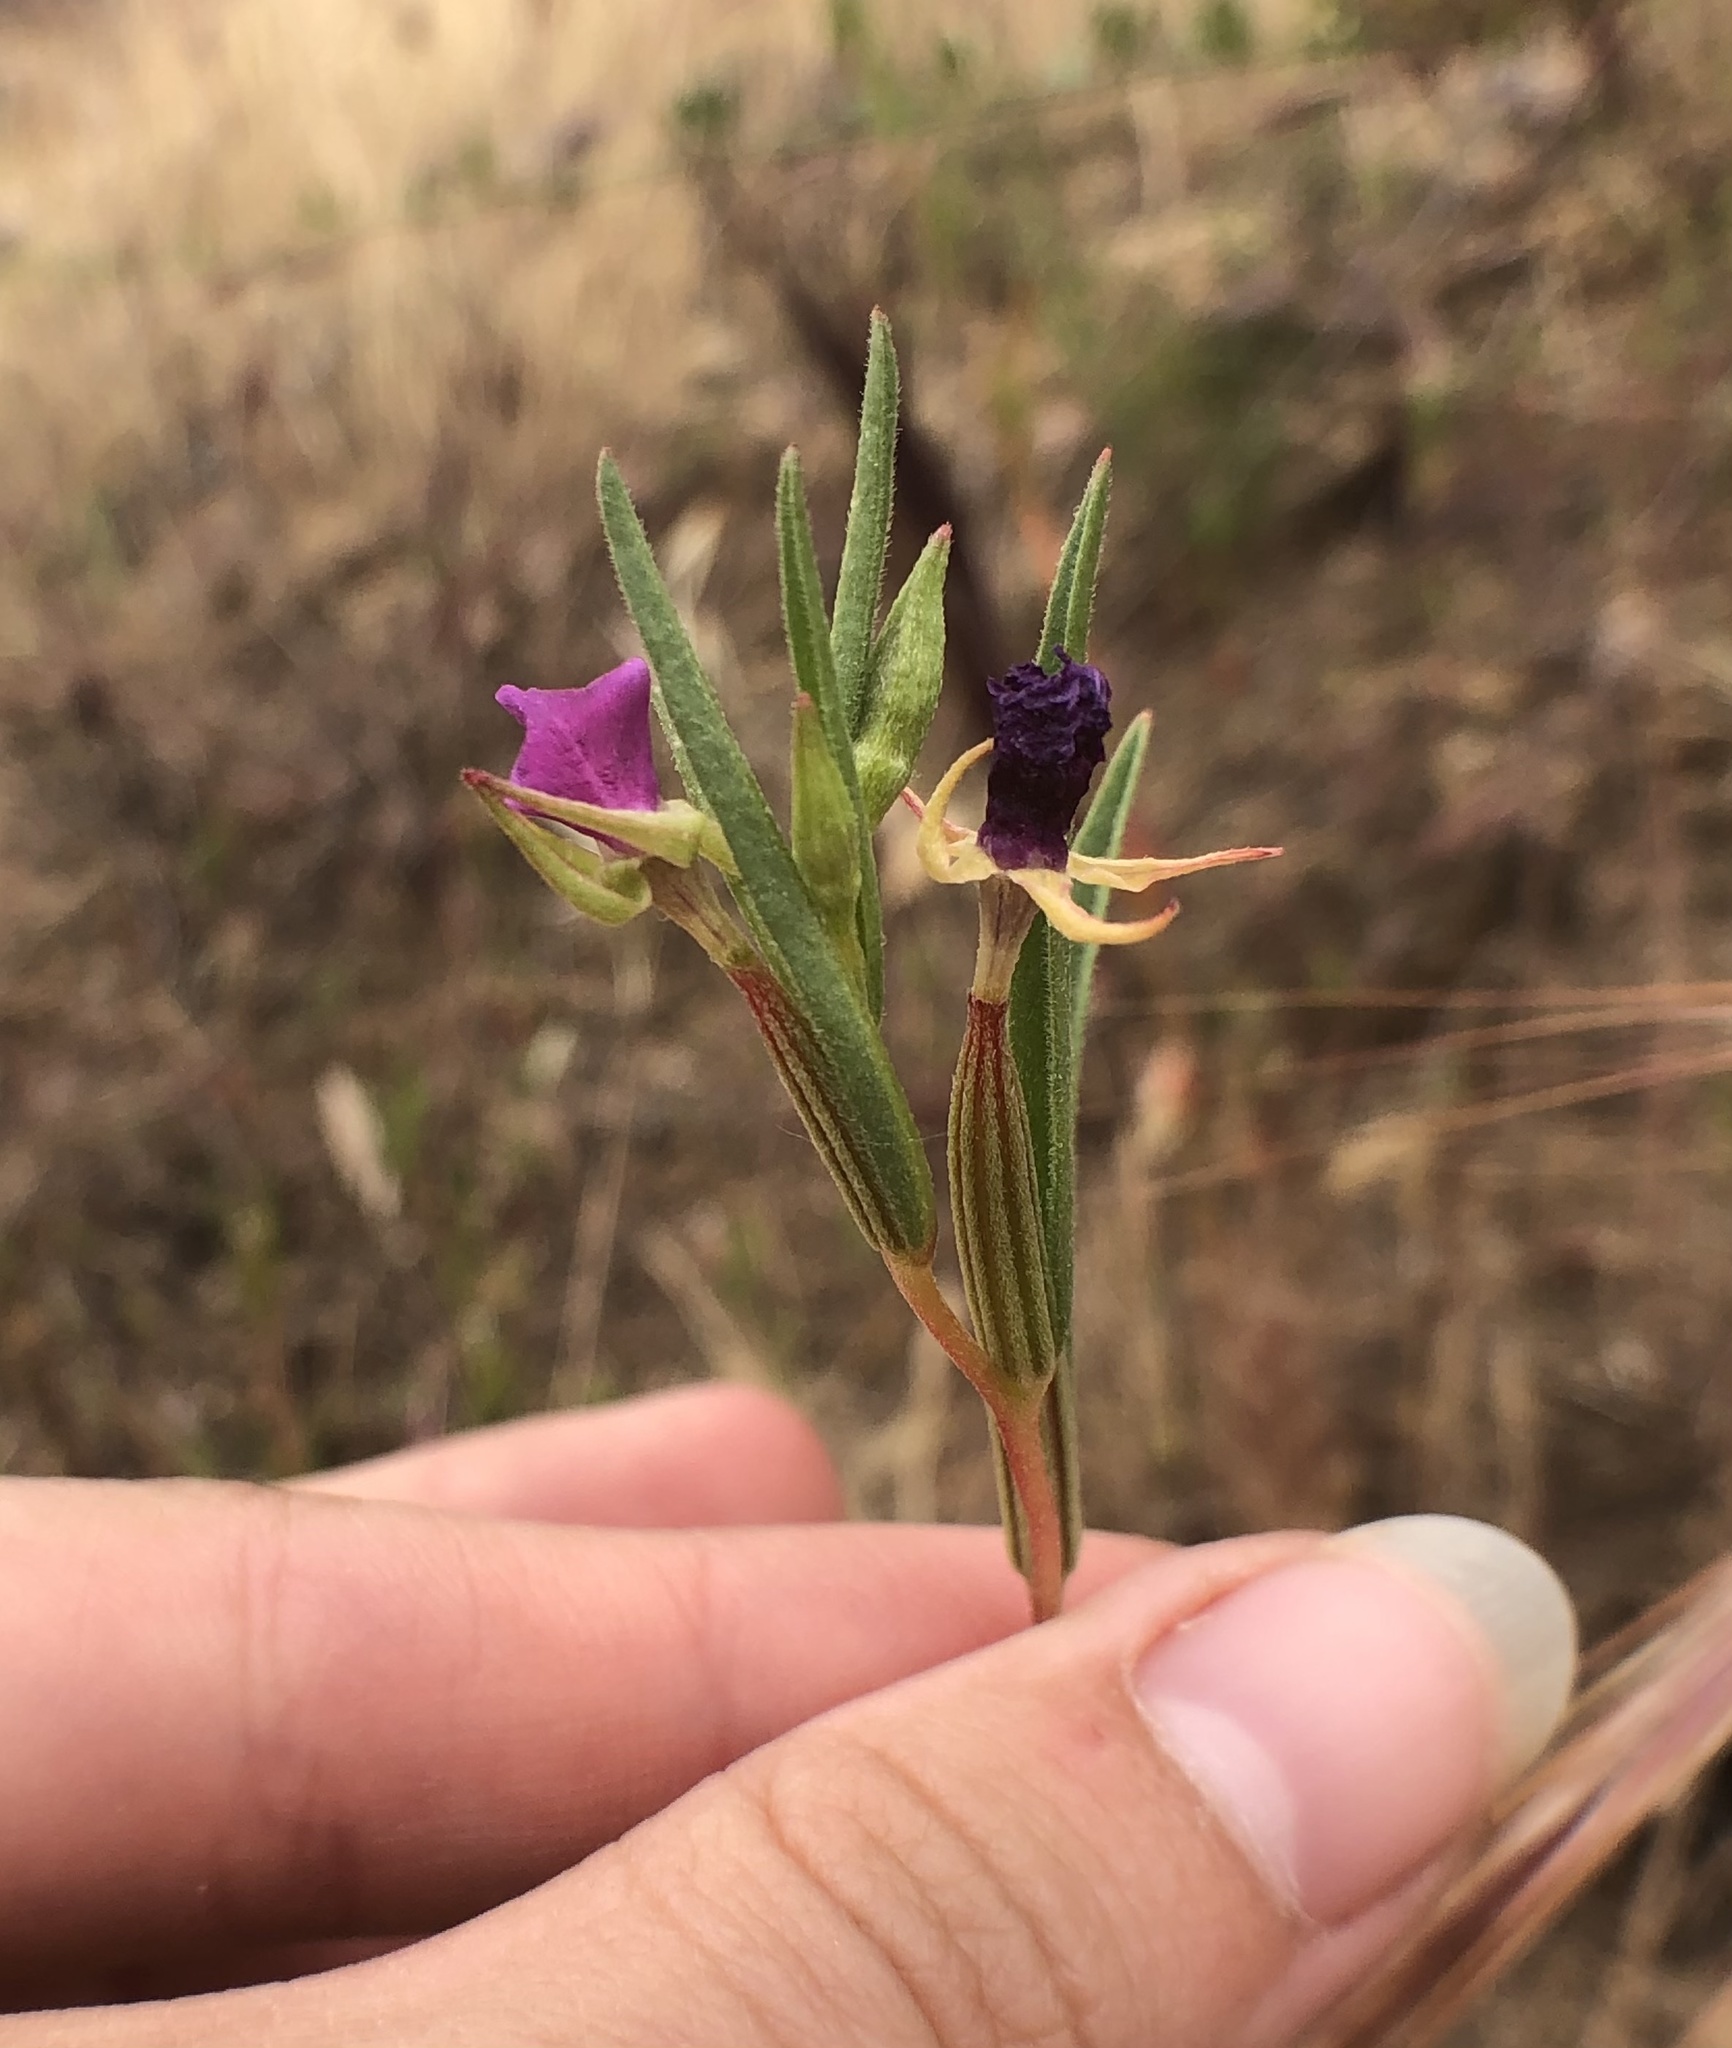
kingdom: Plantae
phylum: Tracheophyta
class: Magnoliopsida
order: Myrtales
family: Onagraceae
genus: Clarkia
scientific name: Clarkia purpurea
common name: Purple clarkia
